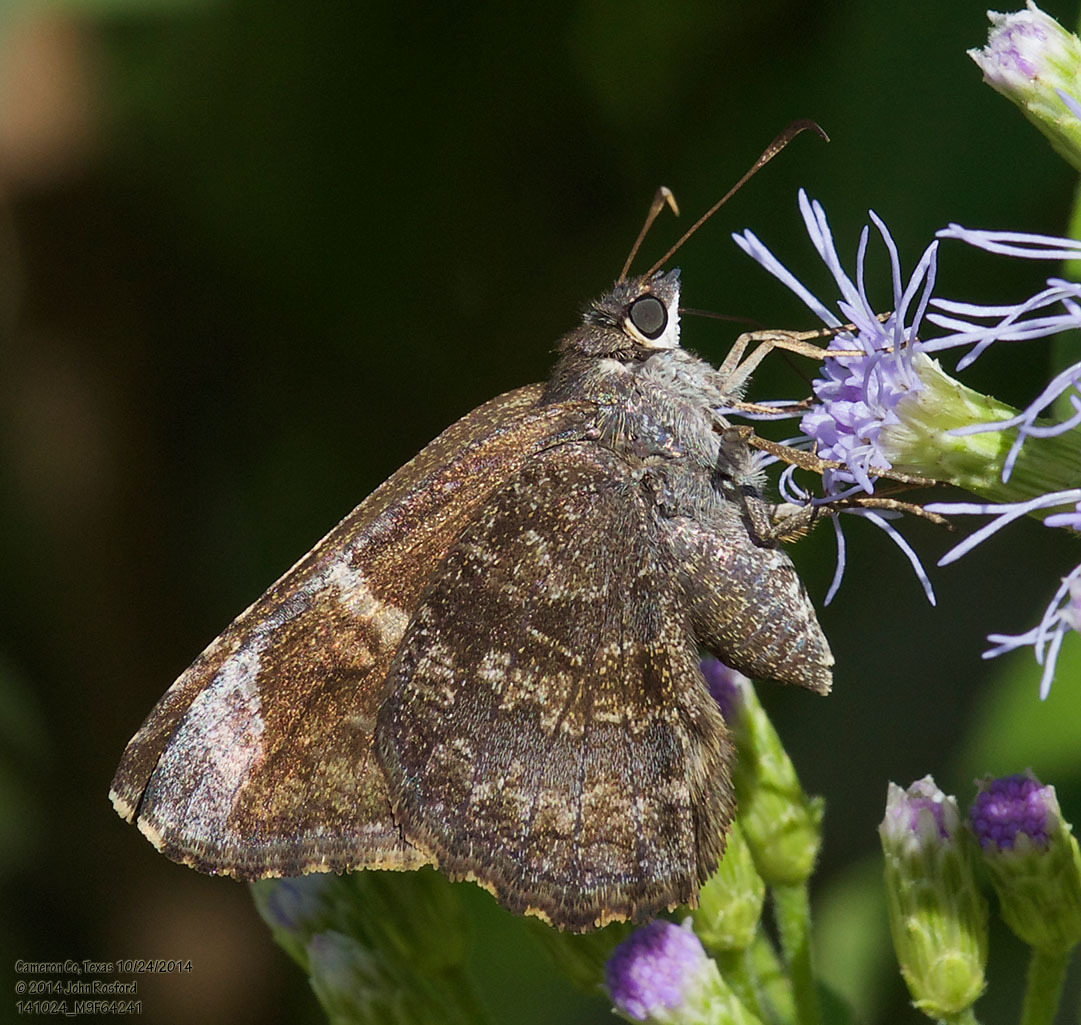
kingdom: Animalia
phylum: Arthropoda
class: Insecta
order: Lepidoptera
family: Hesperiidae
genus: Caicella
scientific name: Caicella calchas
